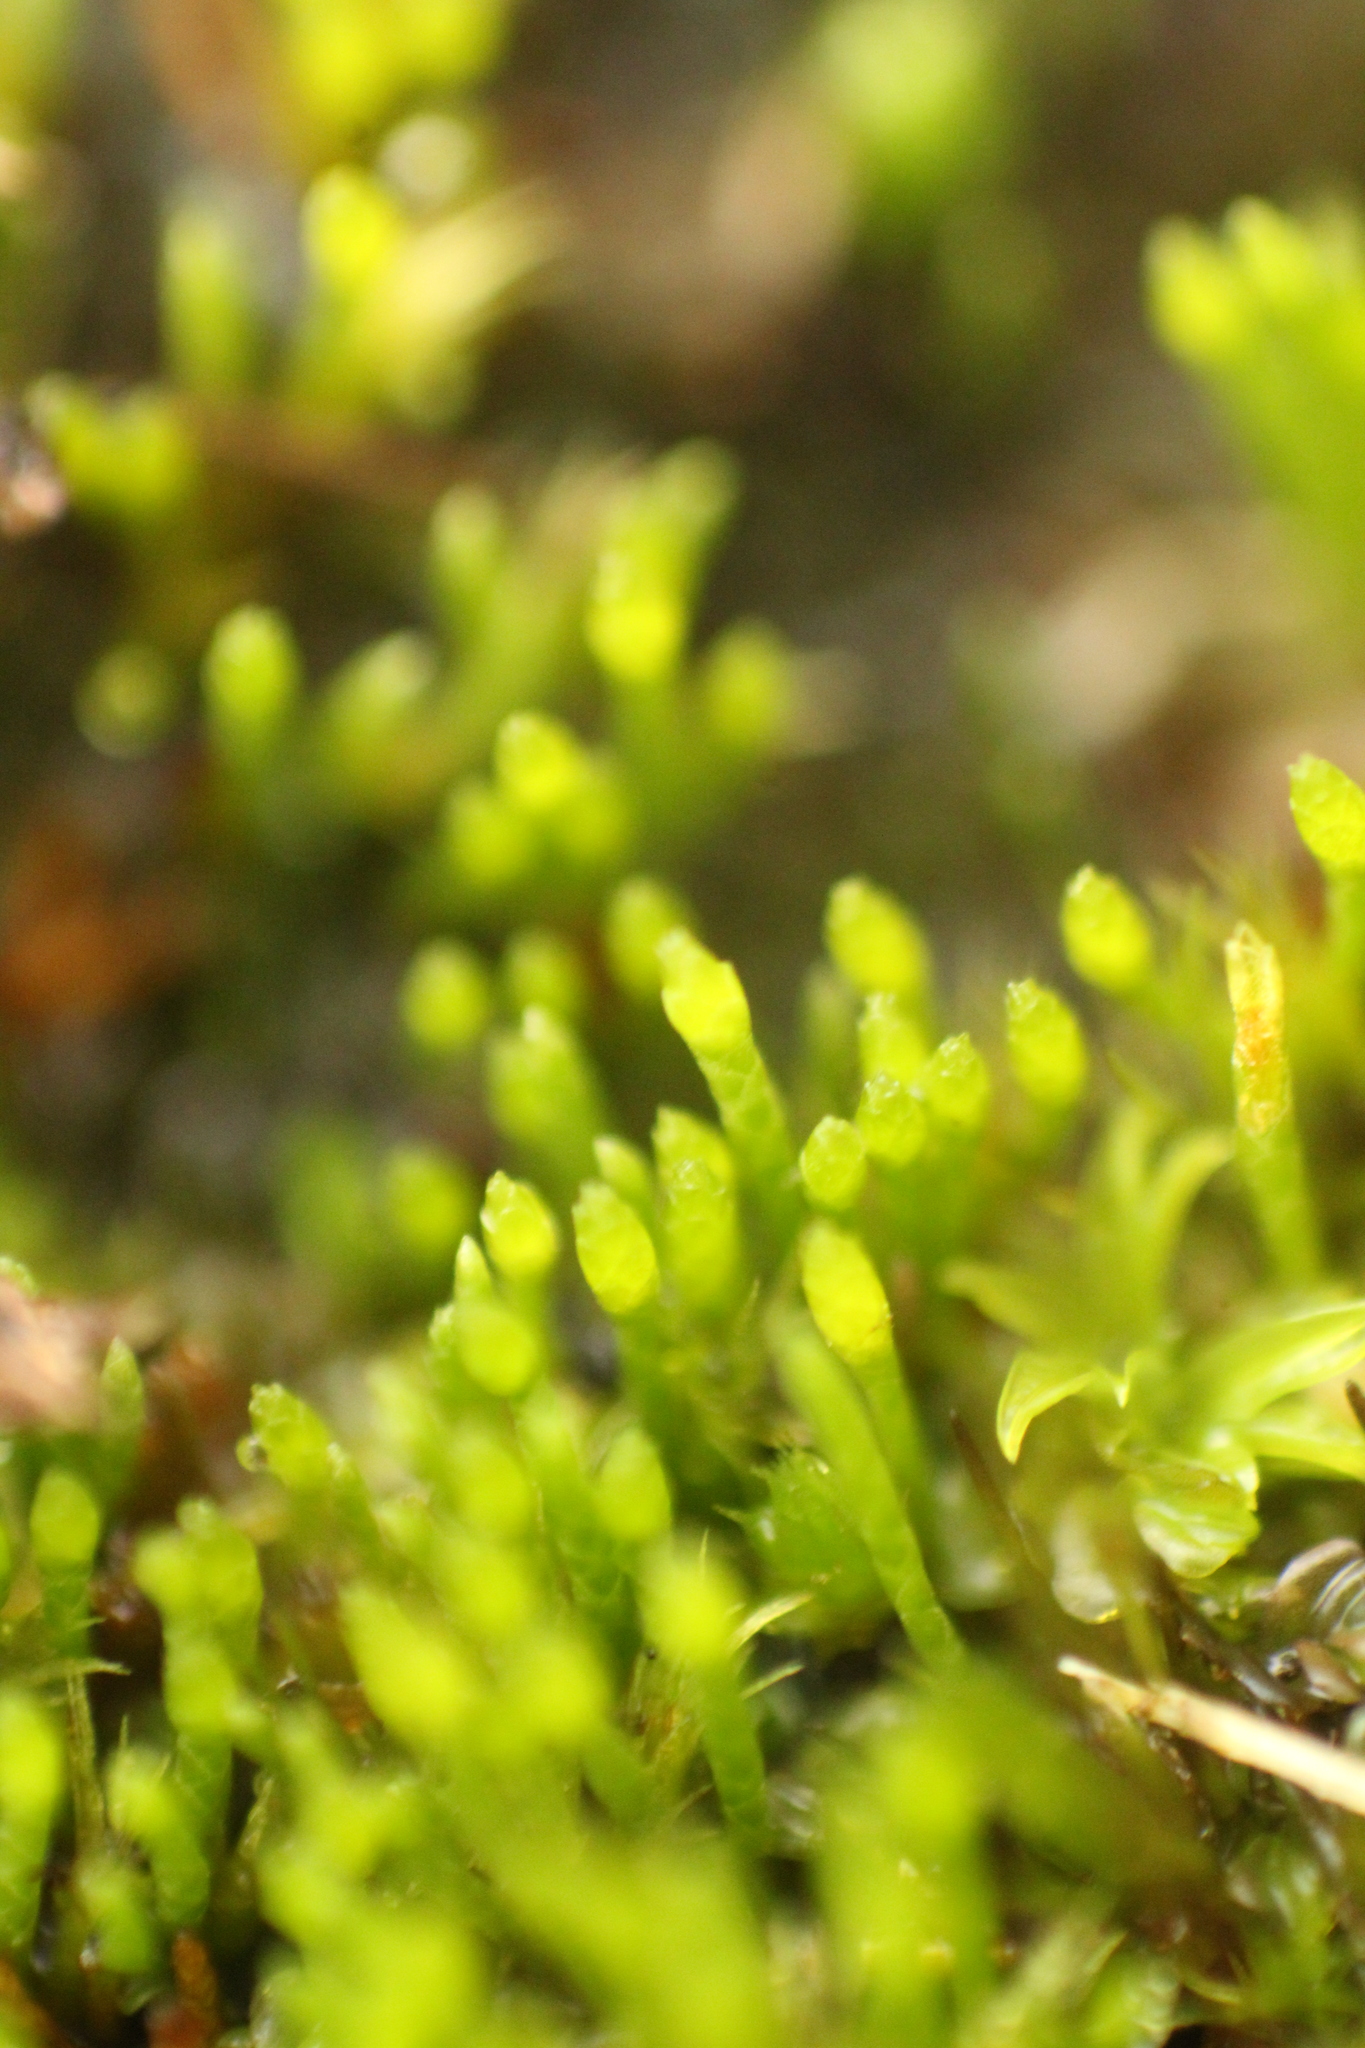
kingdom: Plantae
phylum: Bryophyta
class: Bryopsida
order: Dicranales
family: Dicranellaceae
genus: Eccremidium
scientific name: Eccremidium pulchellum
